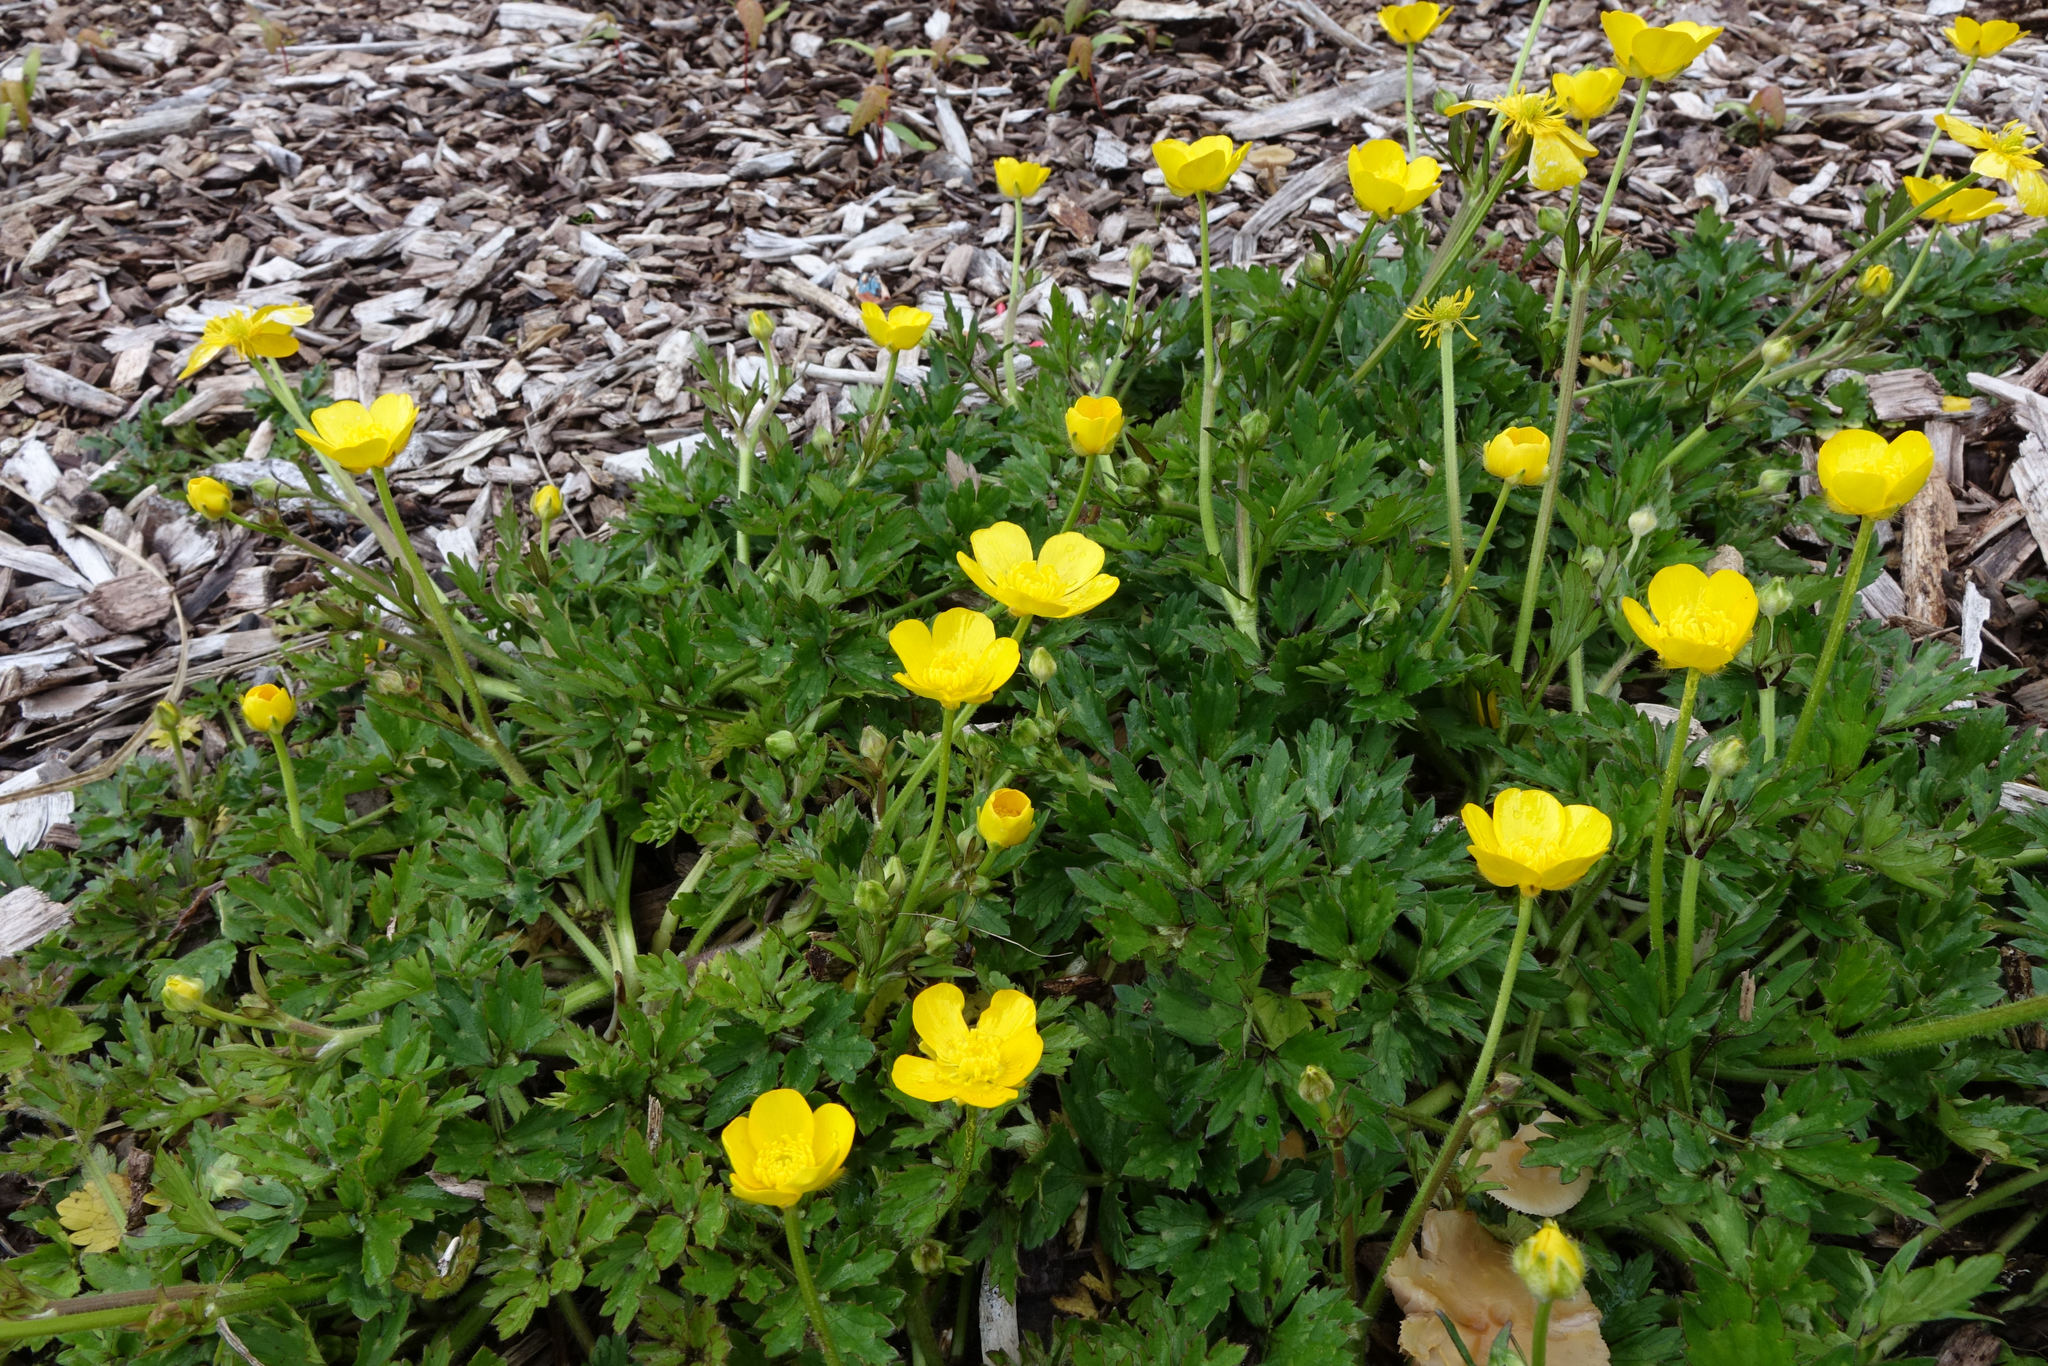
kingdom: Plantae
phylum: Tracheophyta
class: Magnoliopsida
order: Ranunculales
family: Ranunculaceae
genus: Ranunculus
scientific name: Ranunculus repens
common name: Creeping buttercup
